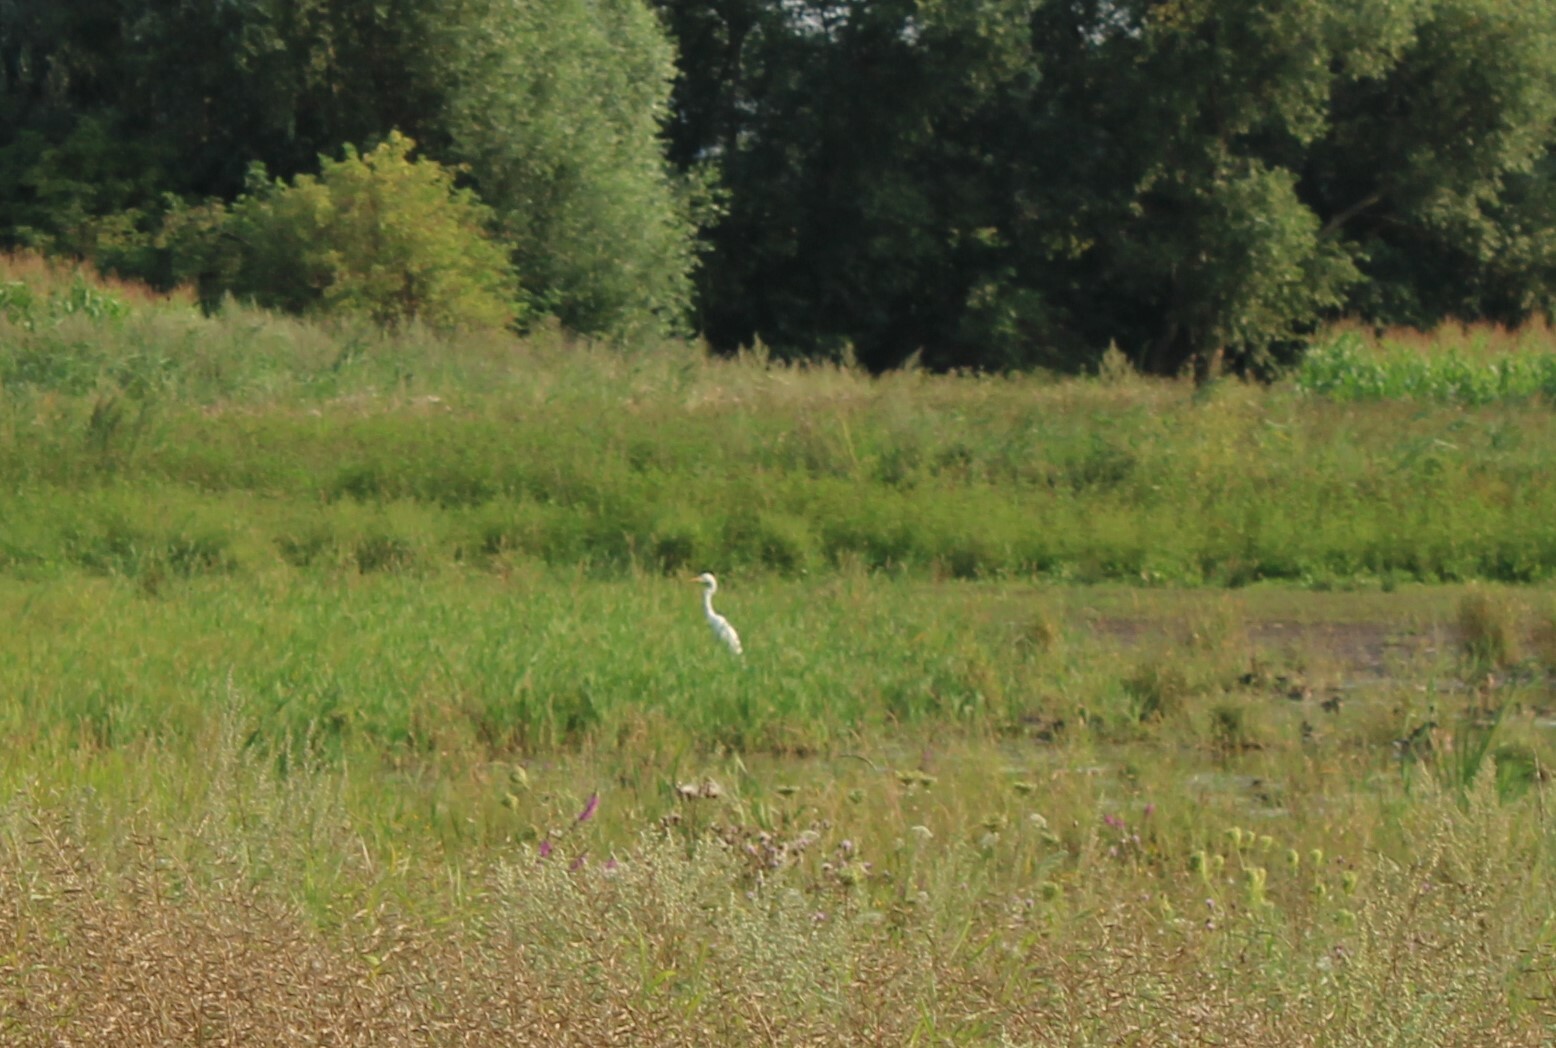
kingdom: Animalia
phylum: Chordata
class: Aves
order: Pelecaniformes
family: Ardeidae
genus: Ardea
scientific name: Ardea alba
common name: Great egret
